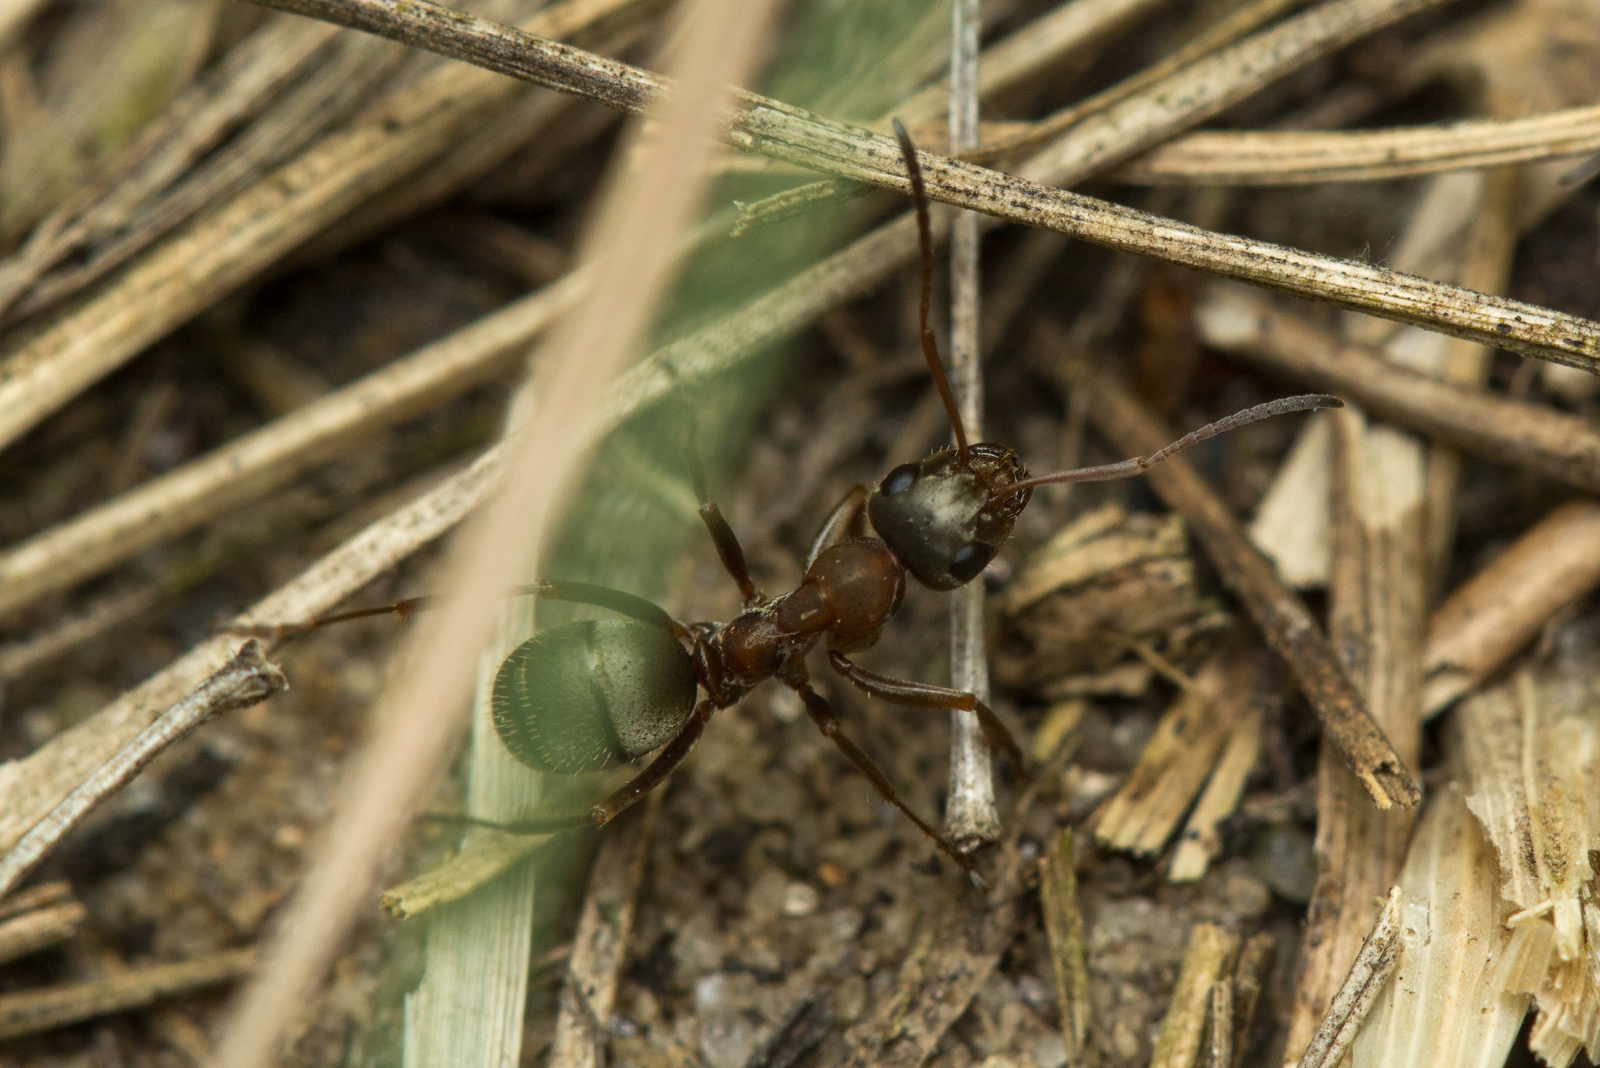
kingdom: Animalia
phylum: Arthropoda
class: Insecta
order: Hymenoptera
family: Formicidae
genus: Formica
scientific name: Formica cinerea
